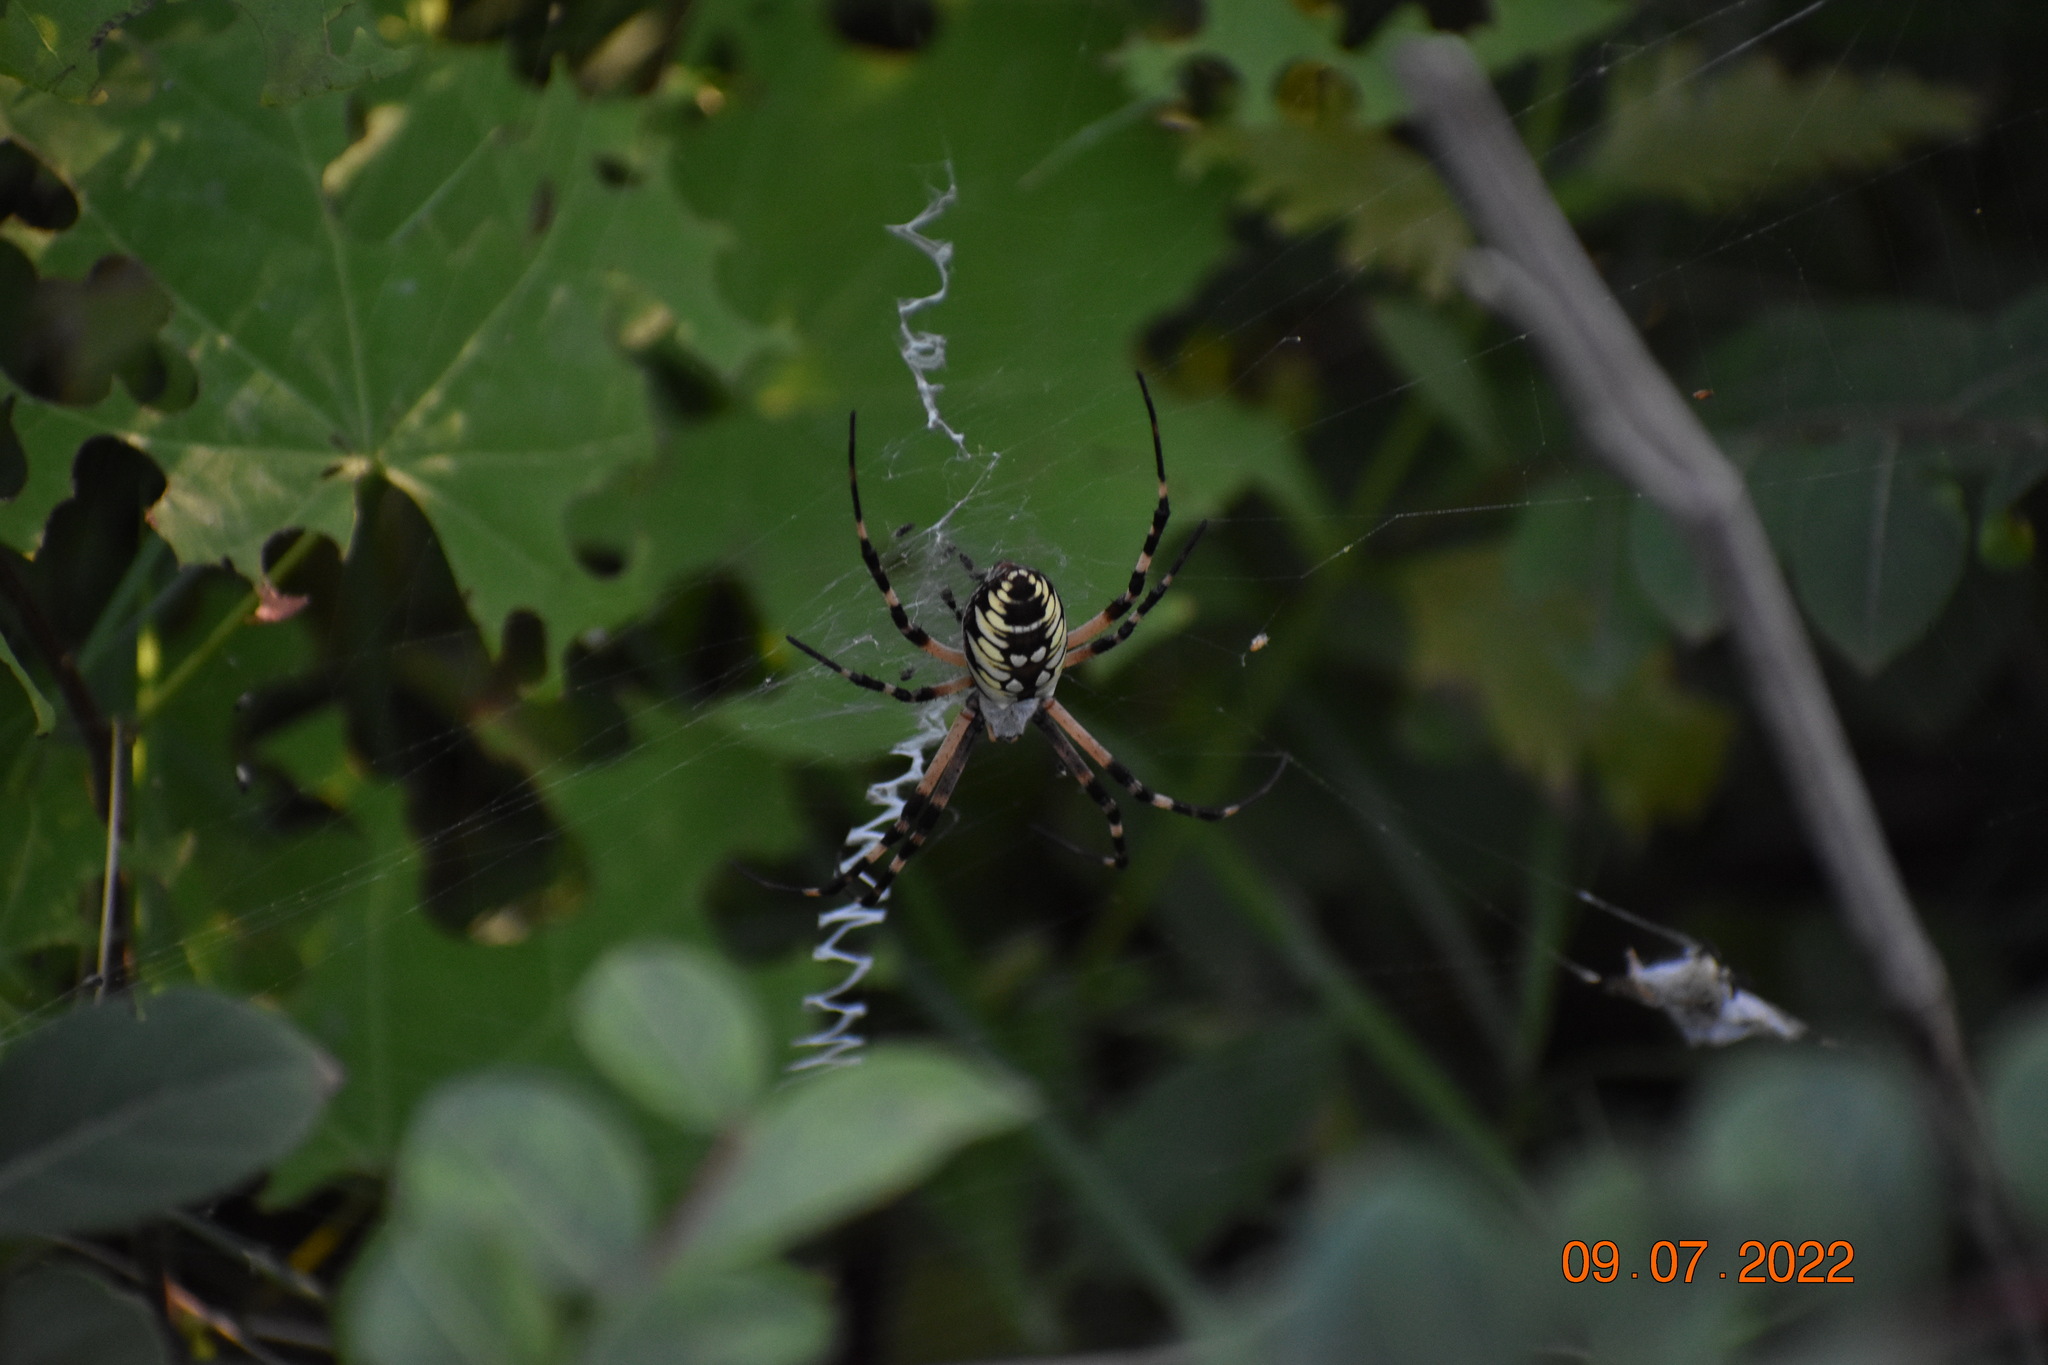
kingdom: Animalia
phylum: Arthropoda
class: Arachnida
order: Araneae
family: Araneidae
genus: Argiope
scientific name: Argiope aurantia
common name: Orb weavers
